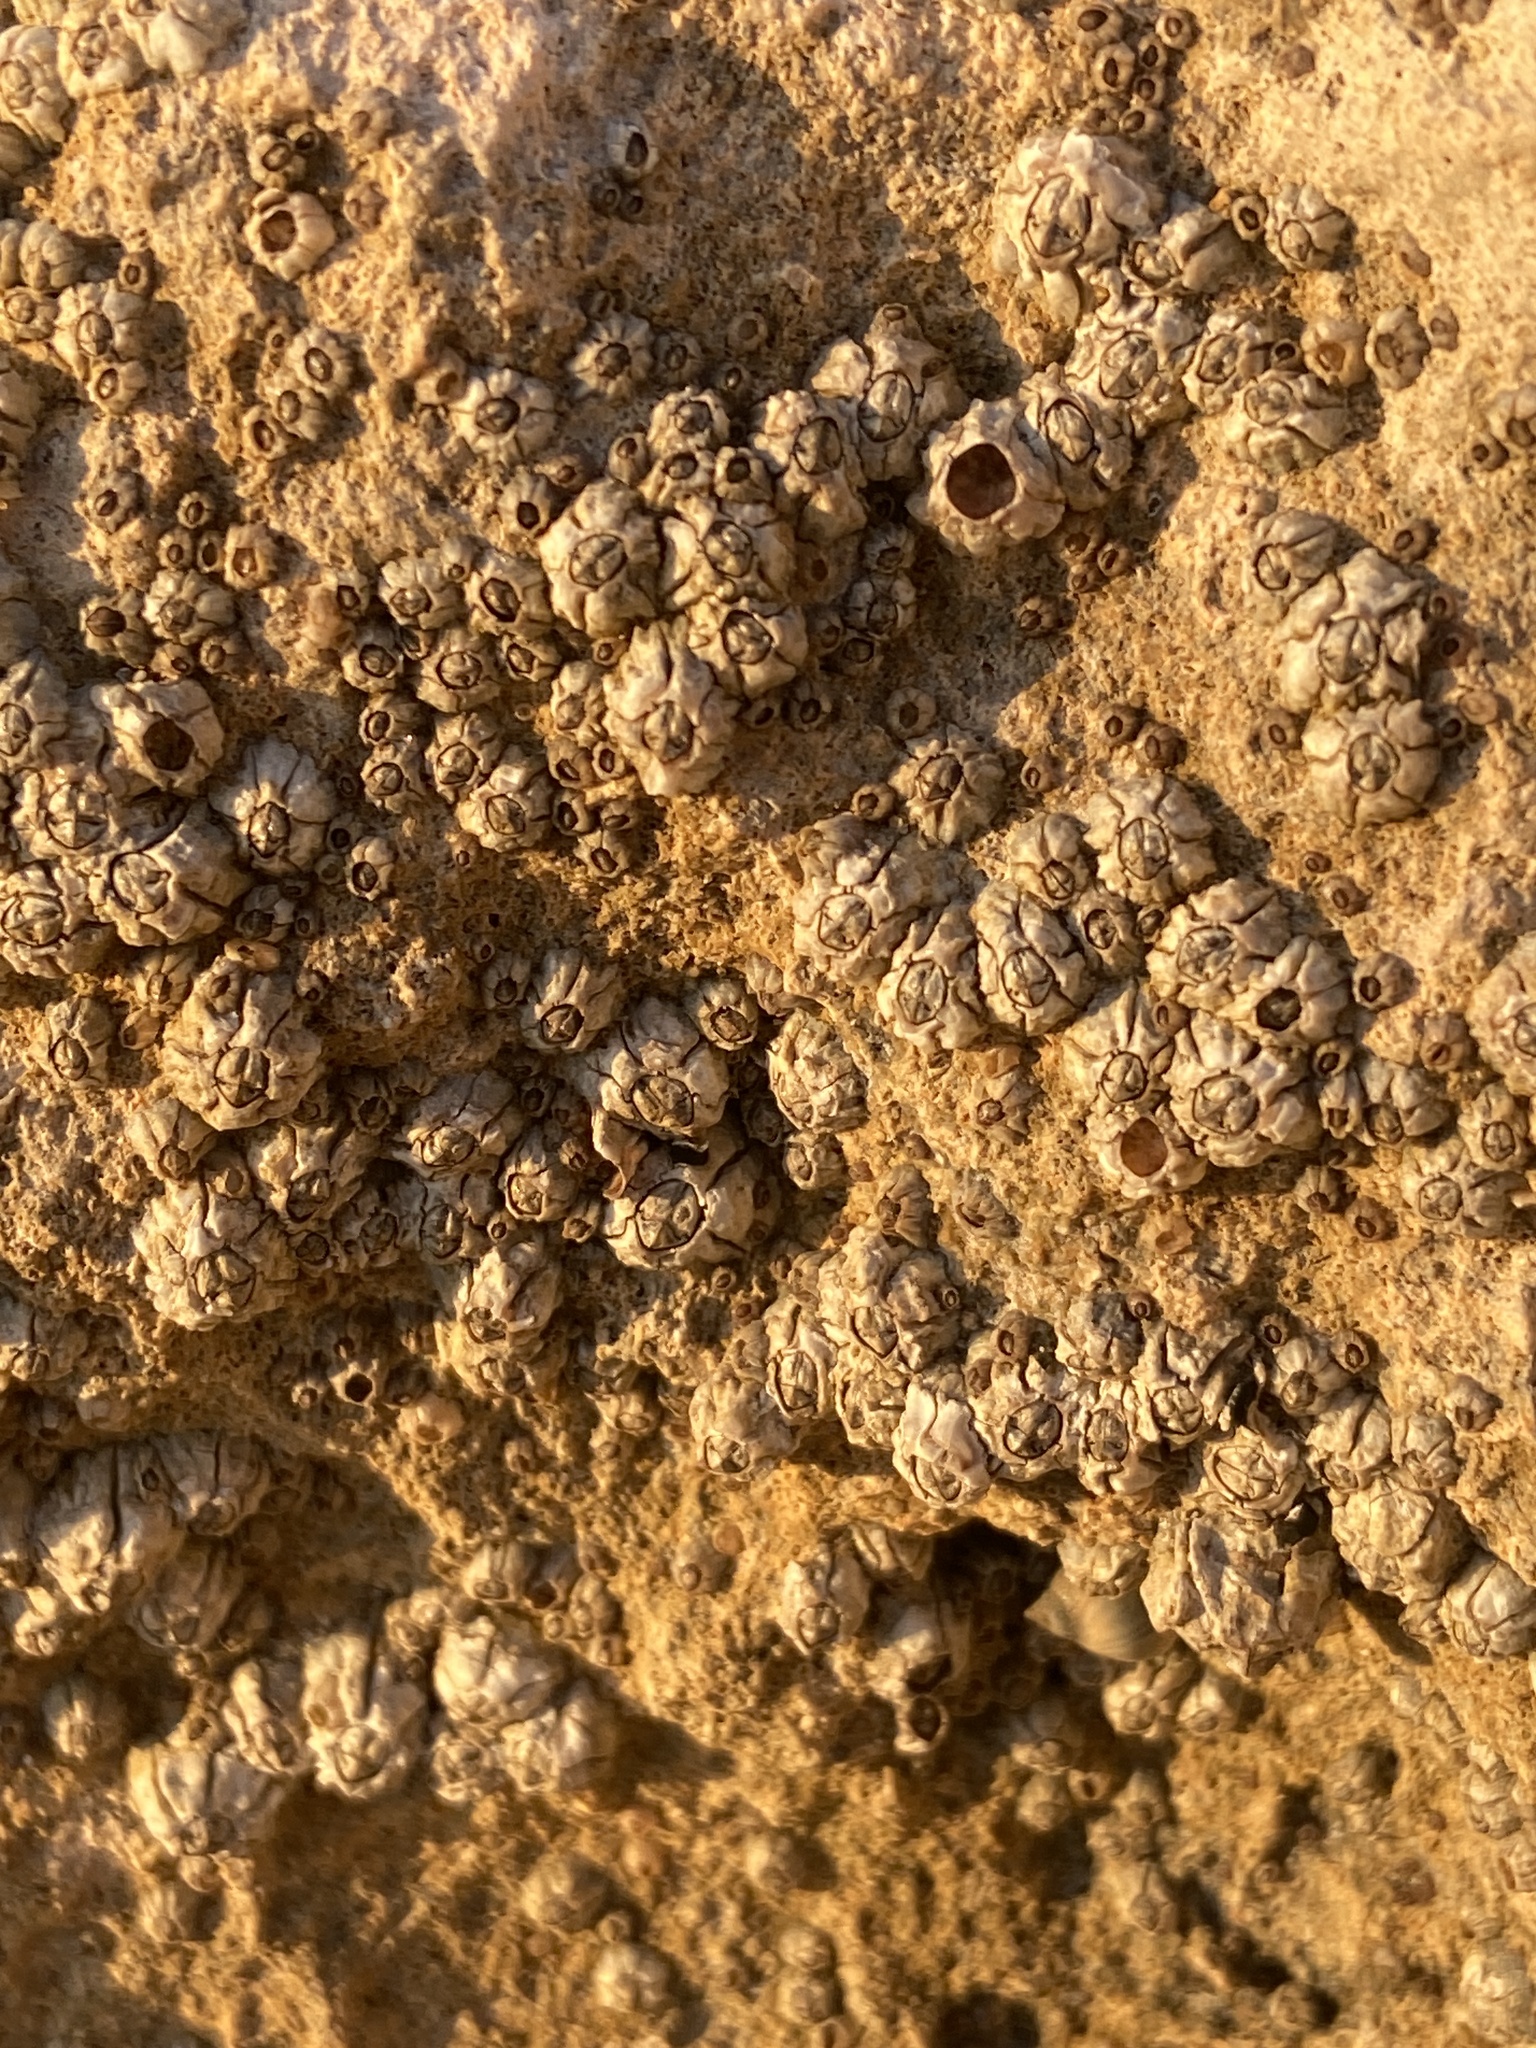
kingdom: Animalia
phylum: Arthropoda
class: Maxillopoda
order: Sessilia
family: Balanidae
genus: Perforatus
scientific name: Perforatus perforatus
